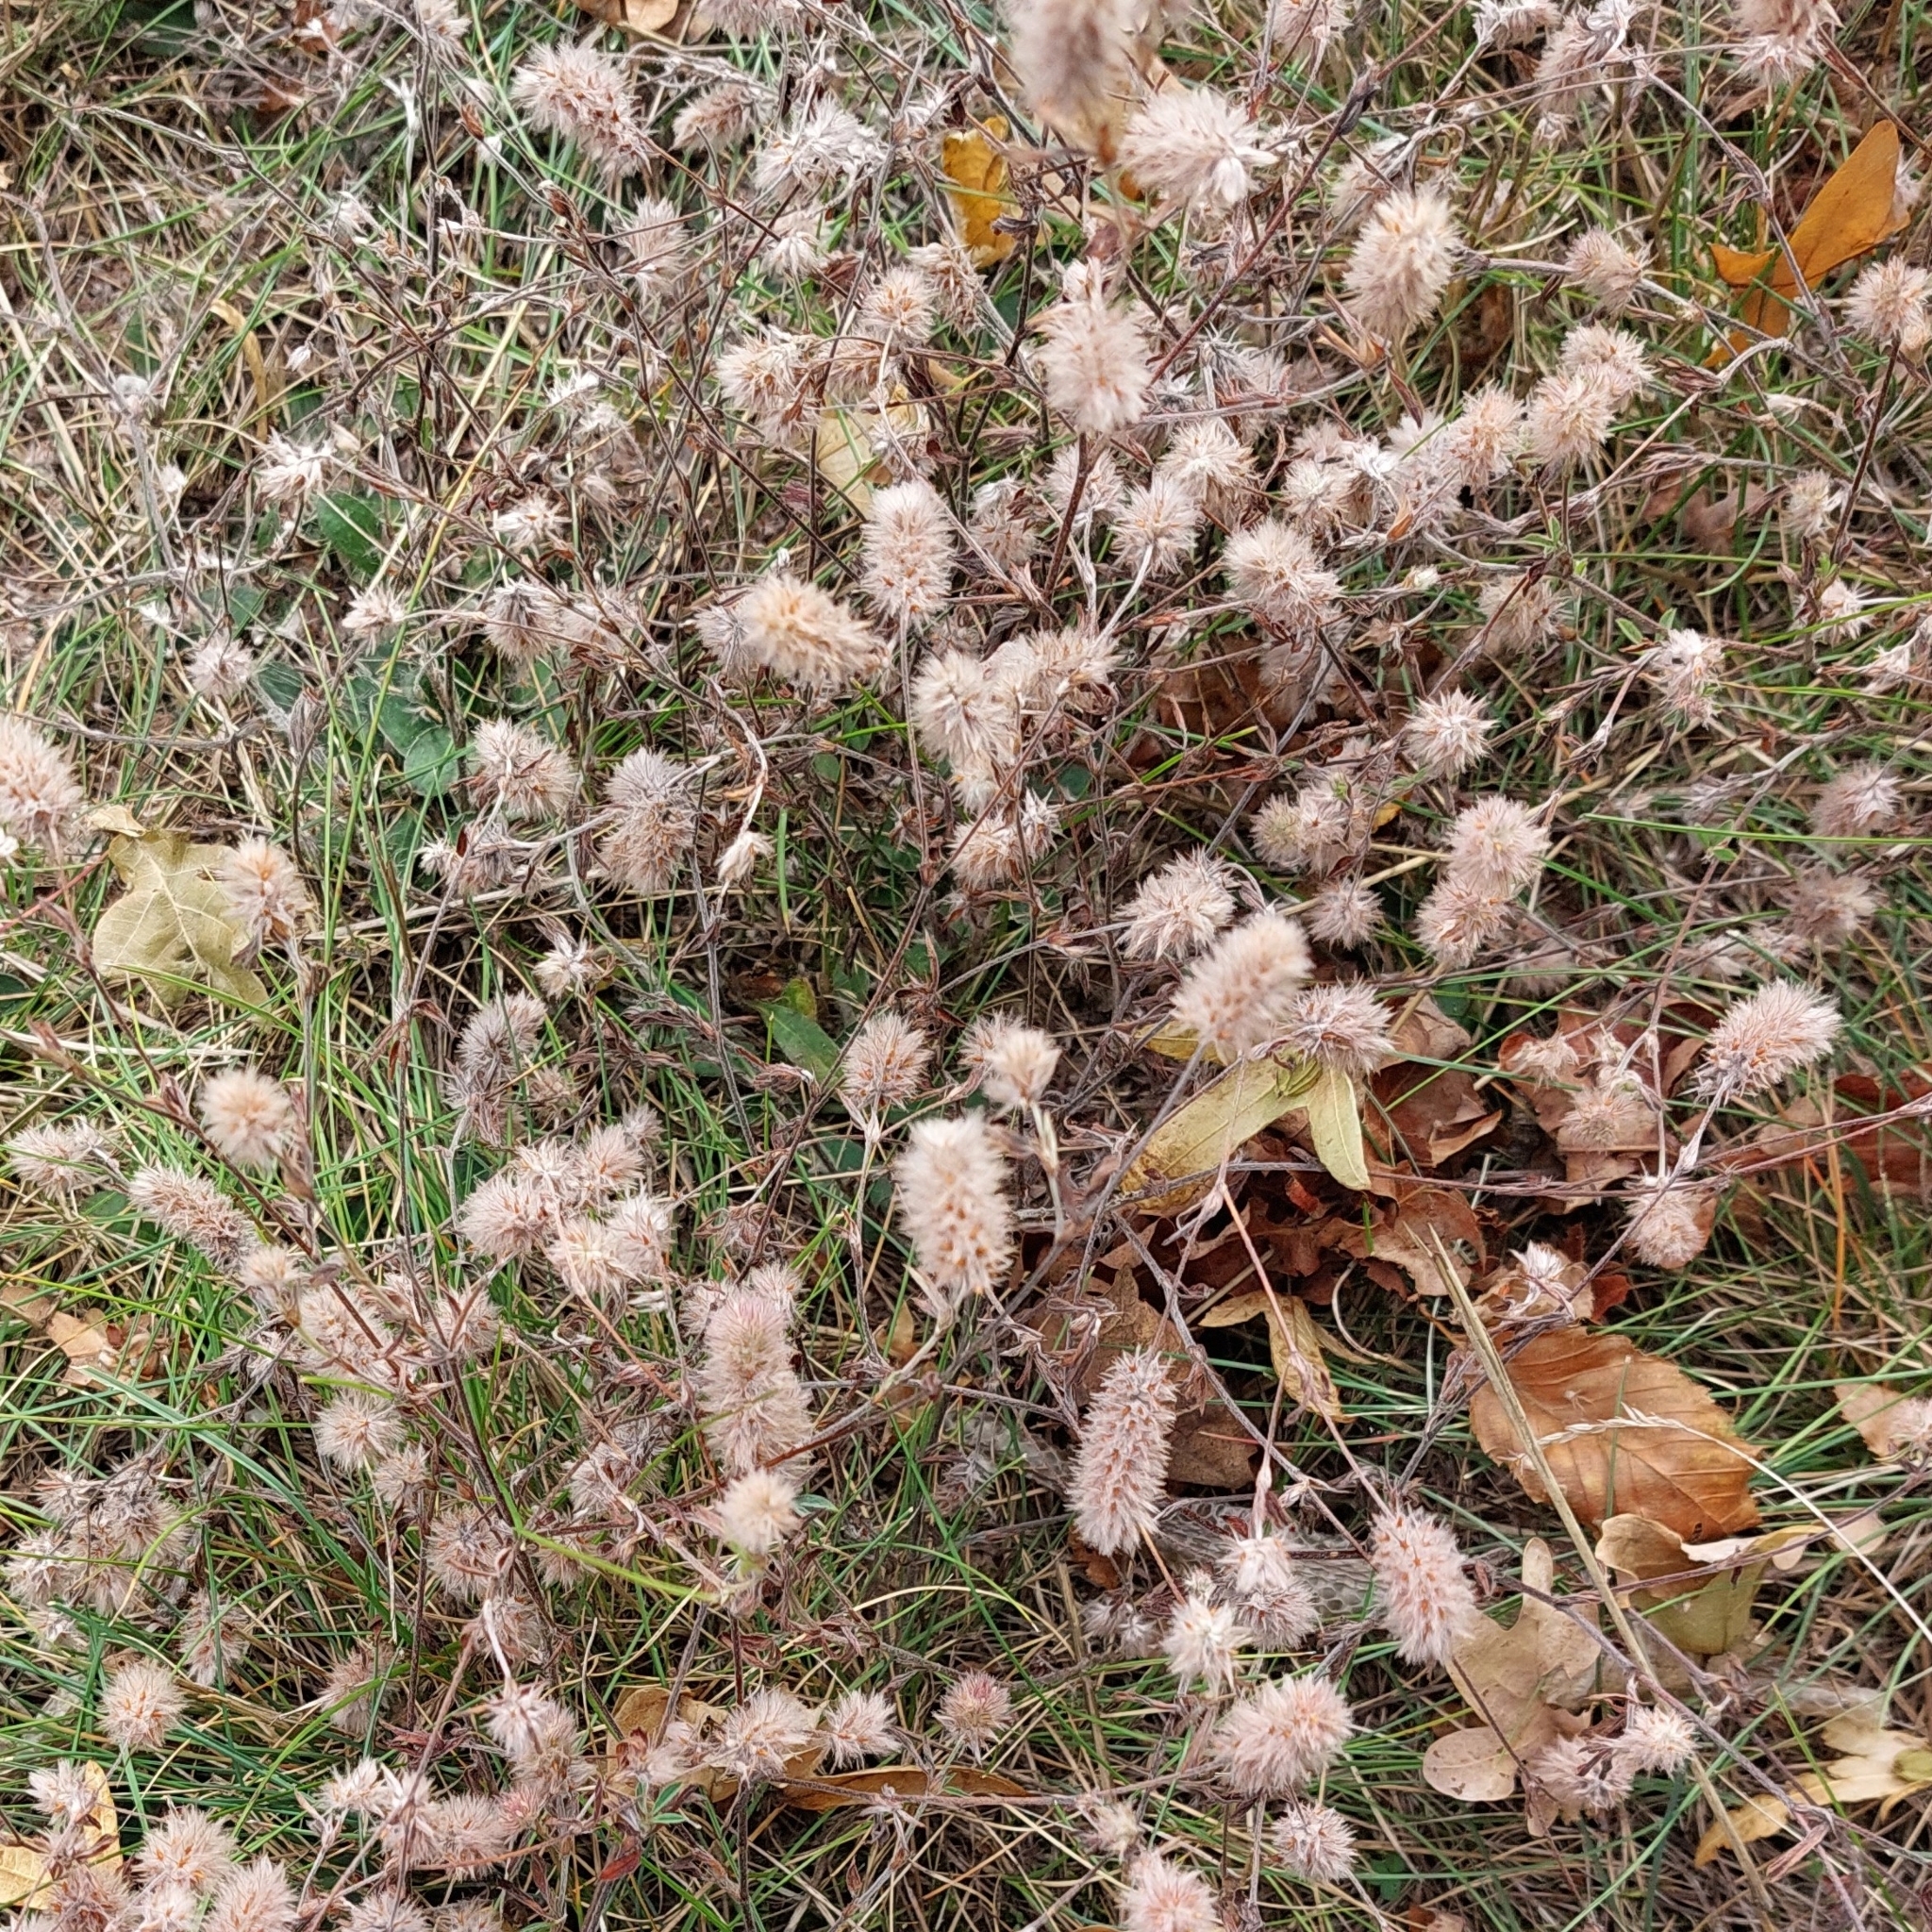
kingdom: Plantae
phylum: Tracheophyta
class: Magnoliopsida
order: Fabales
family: Fabaceae
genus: Trifolium
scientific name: Trifolium arvense
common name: Hare's-foot clover
